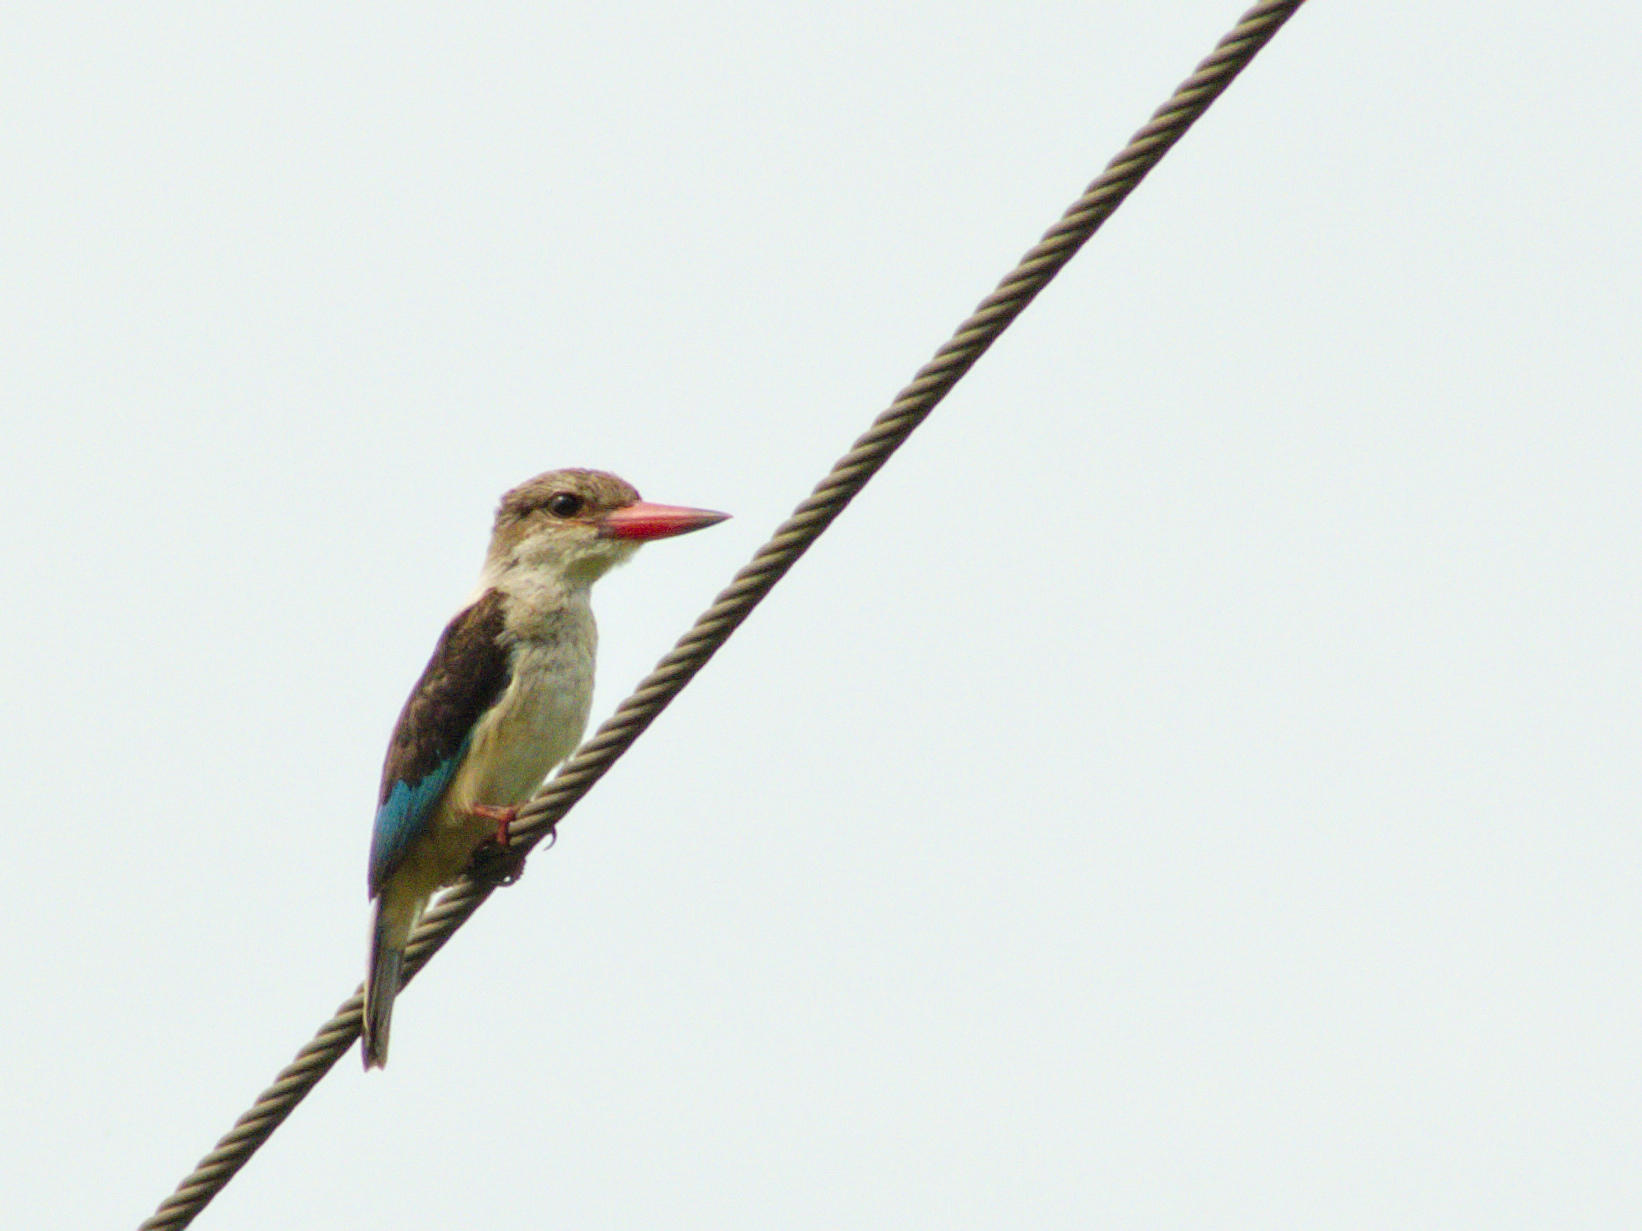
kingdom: Animalia
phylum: Chordata
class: Aves
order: Coraciiformes
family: Alcedinidae
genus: Halcyon
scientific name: Halcyon albiventris
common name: Brown-hooded kingfisher
